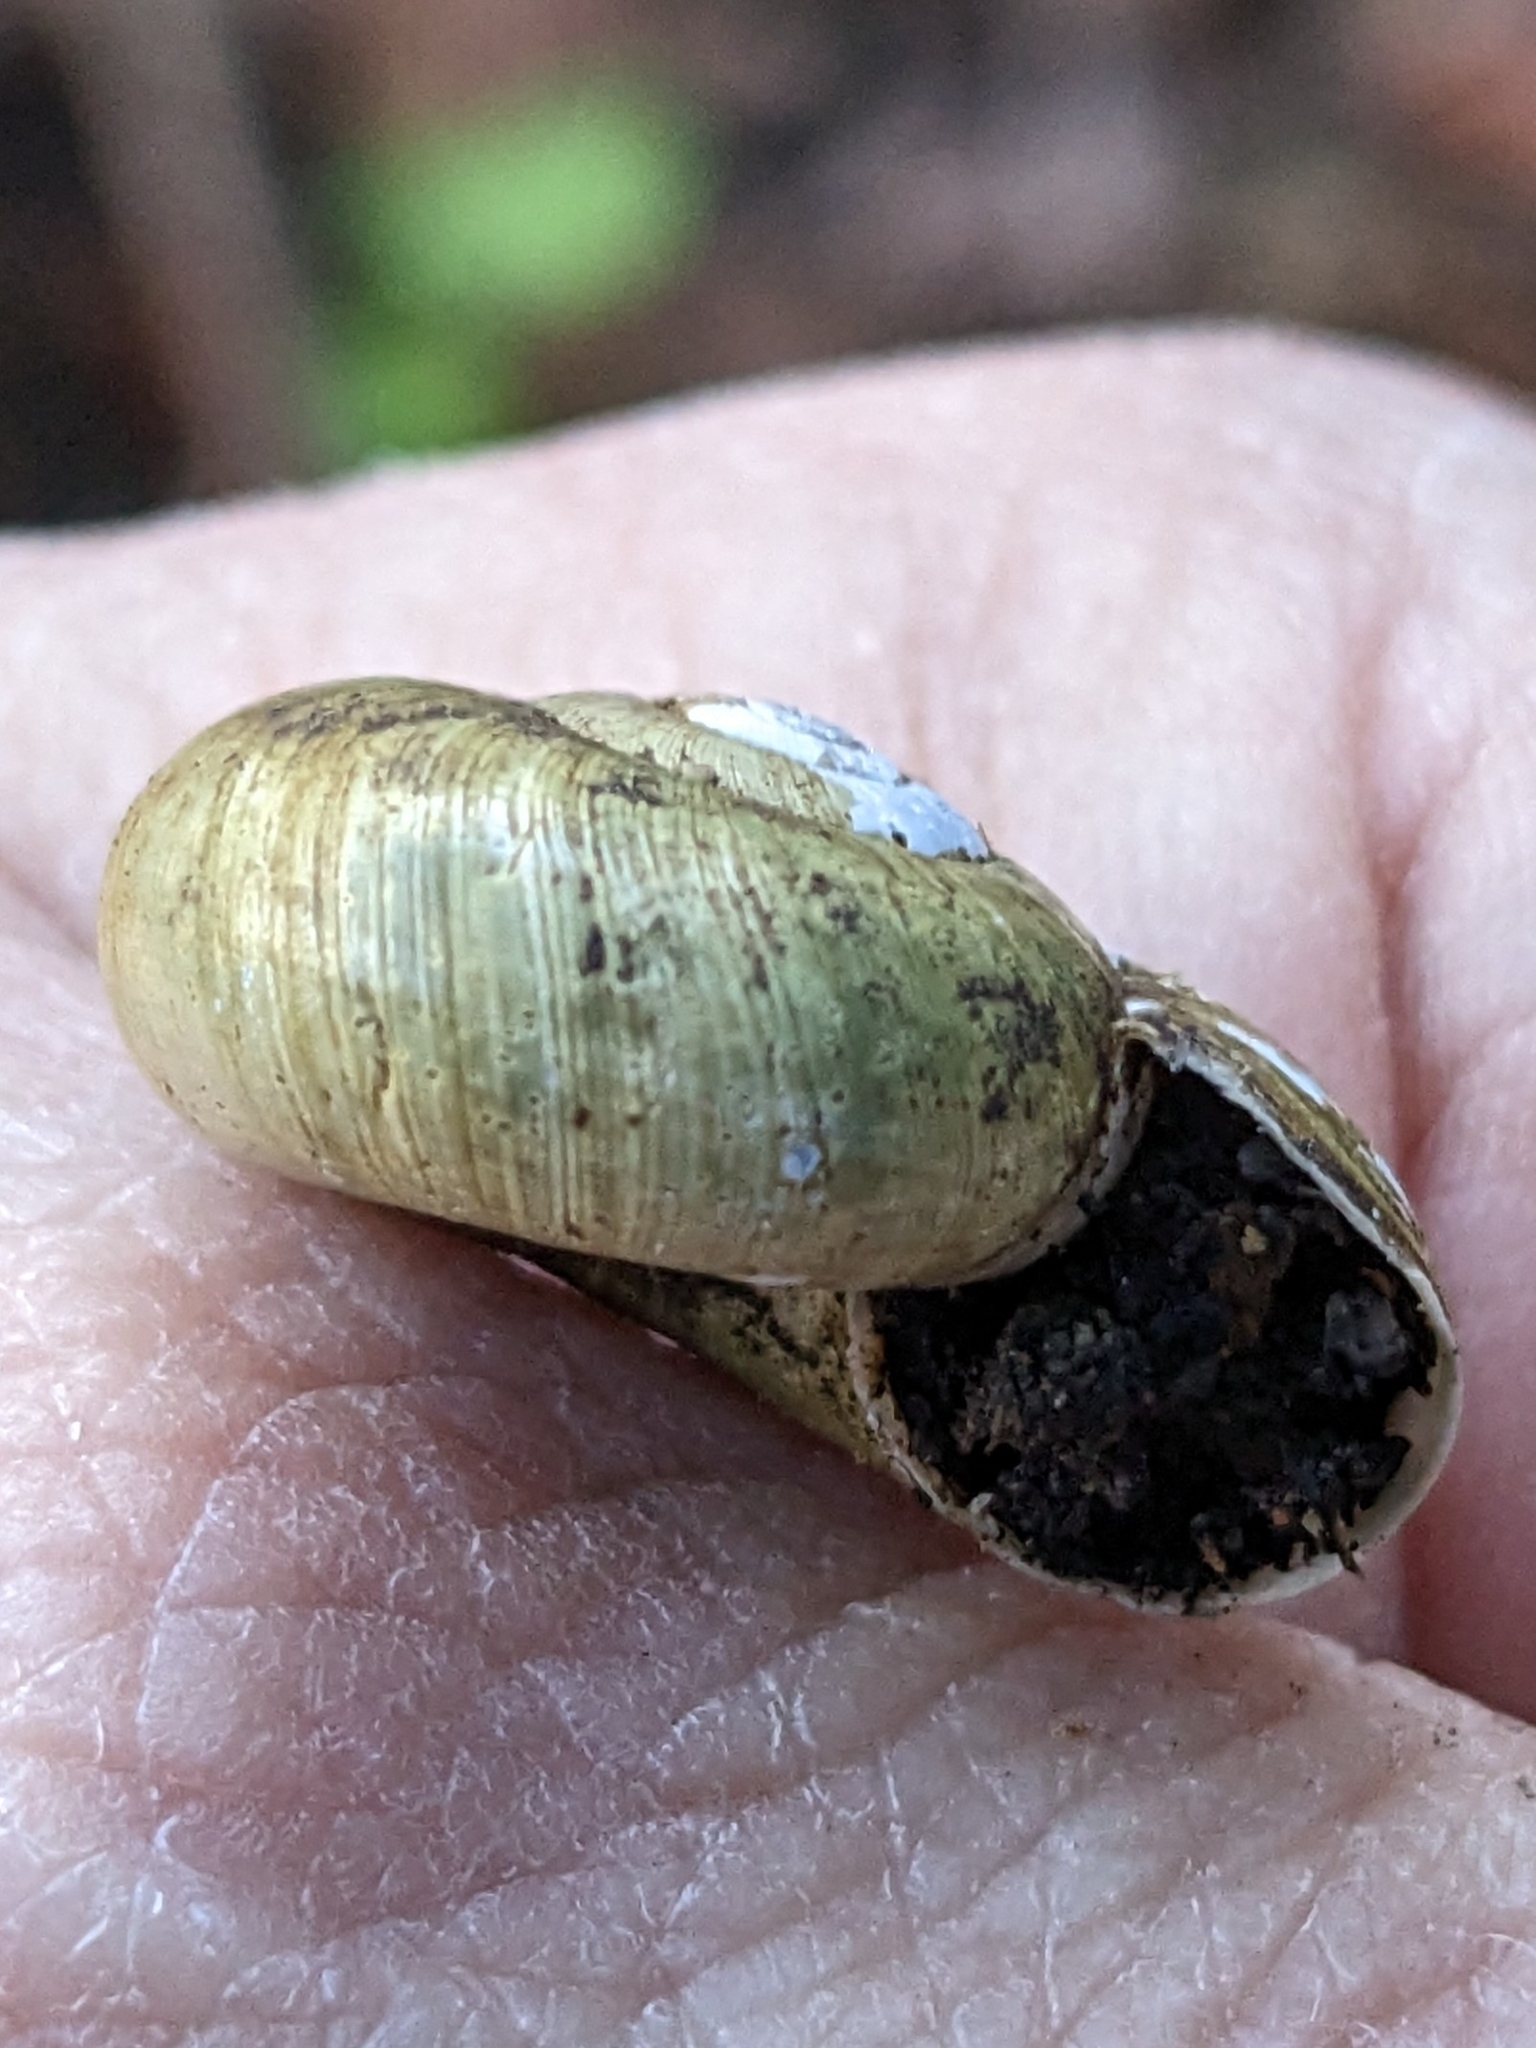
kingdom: Animalia
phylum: Mollusca
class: Gastropoda
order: Stylommatophora
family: Haplotrematidae
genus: Haplotrema
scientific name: Haplotrema minimum
